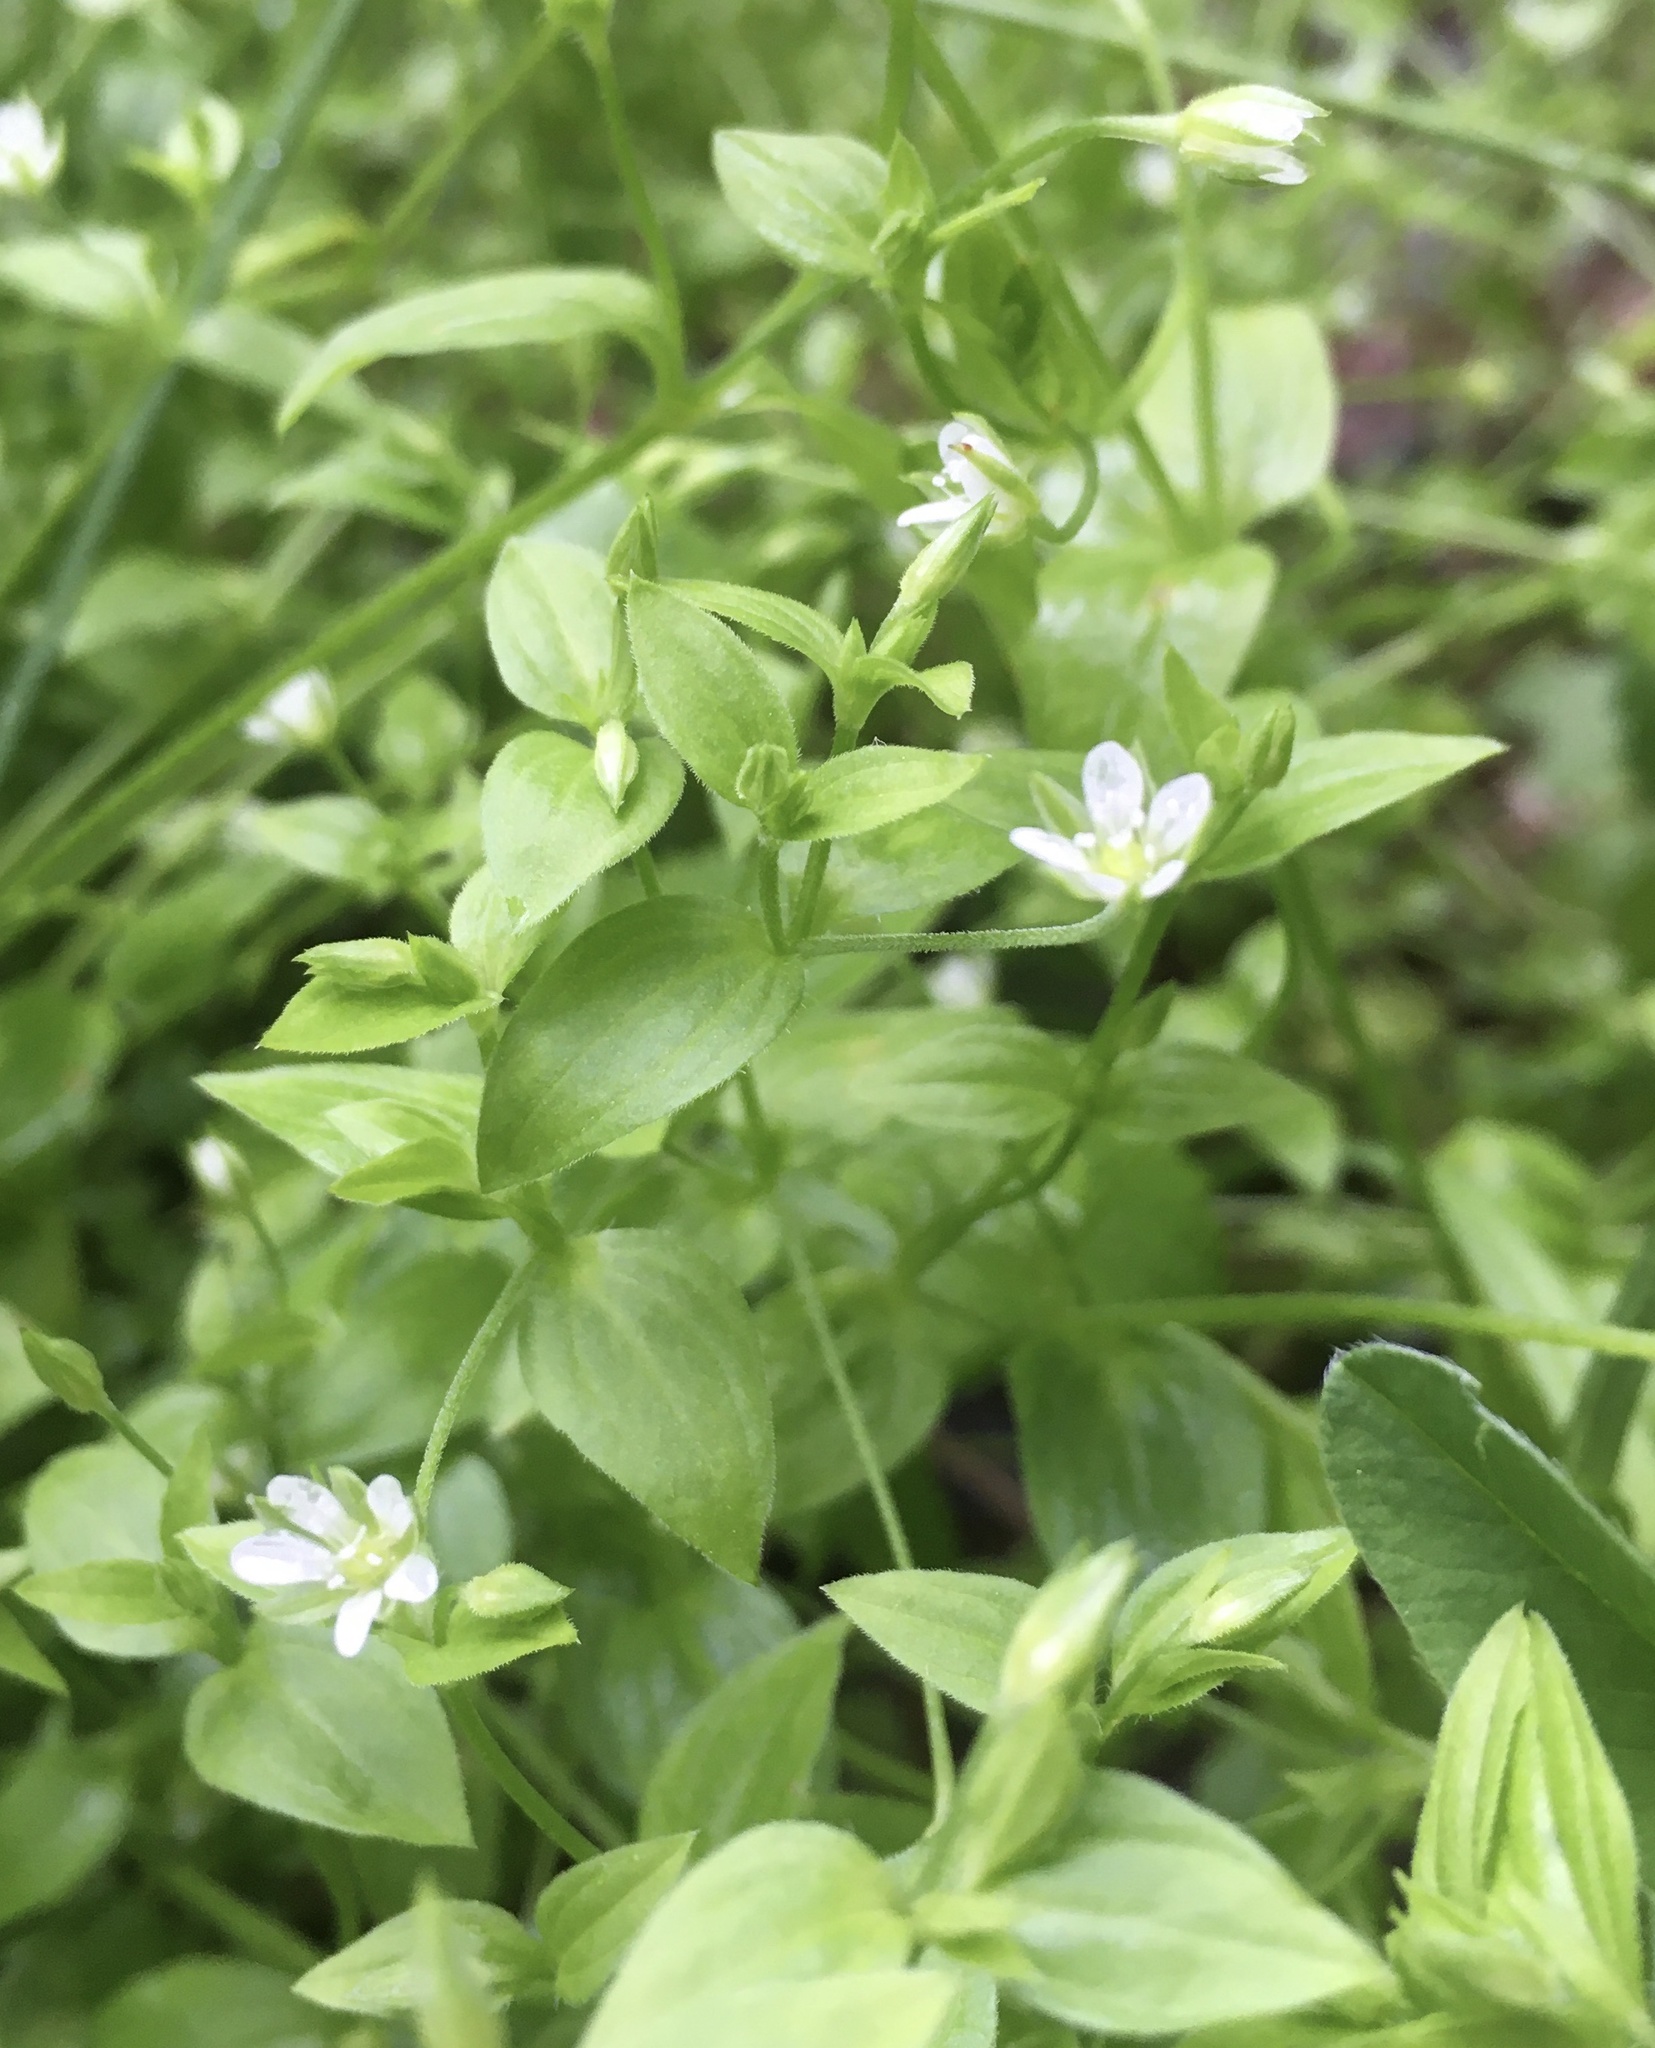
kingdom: Plantae
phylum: Tracheophyta
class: Magnoliopsida
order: Caryophyllales
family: Caryophyllaceae
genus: Moehringia
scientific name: Moehringia trinervia
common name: Three-nerved sandwort
